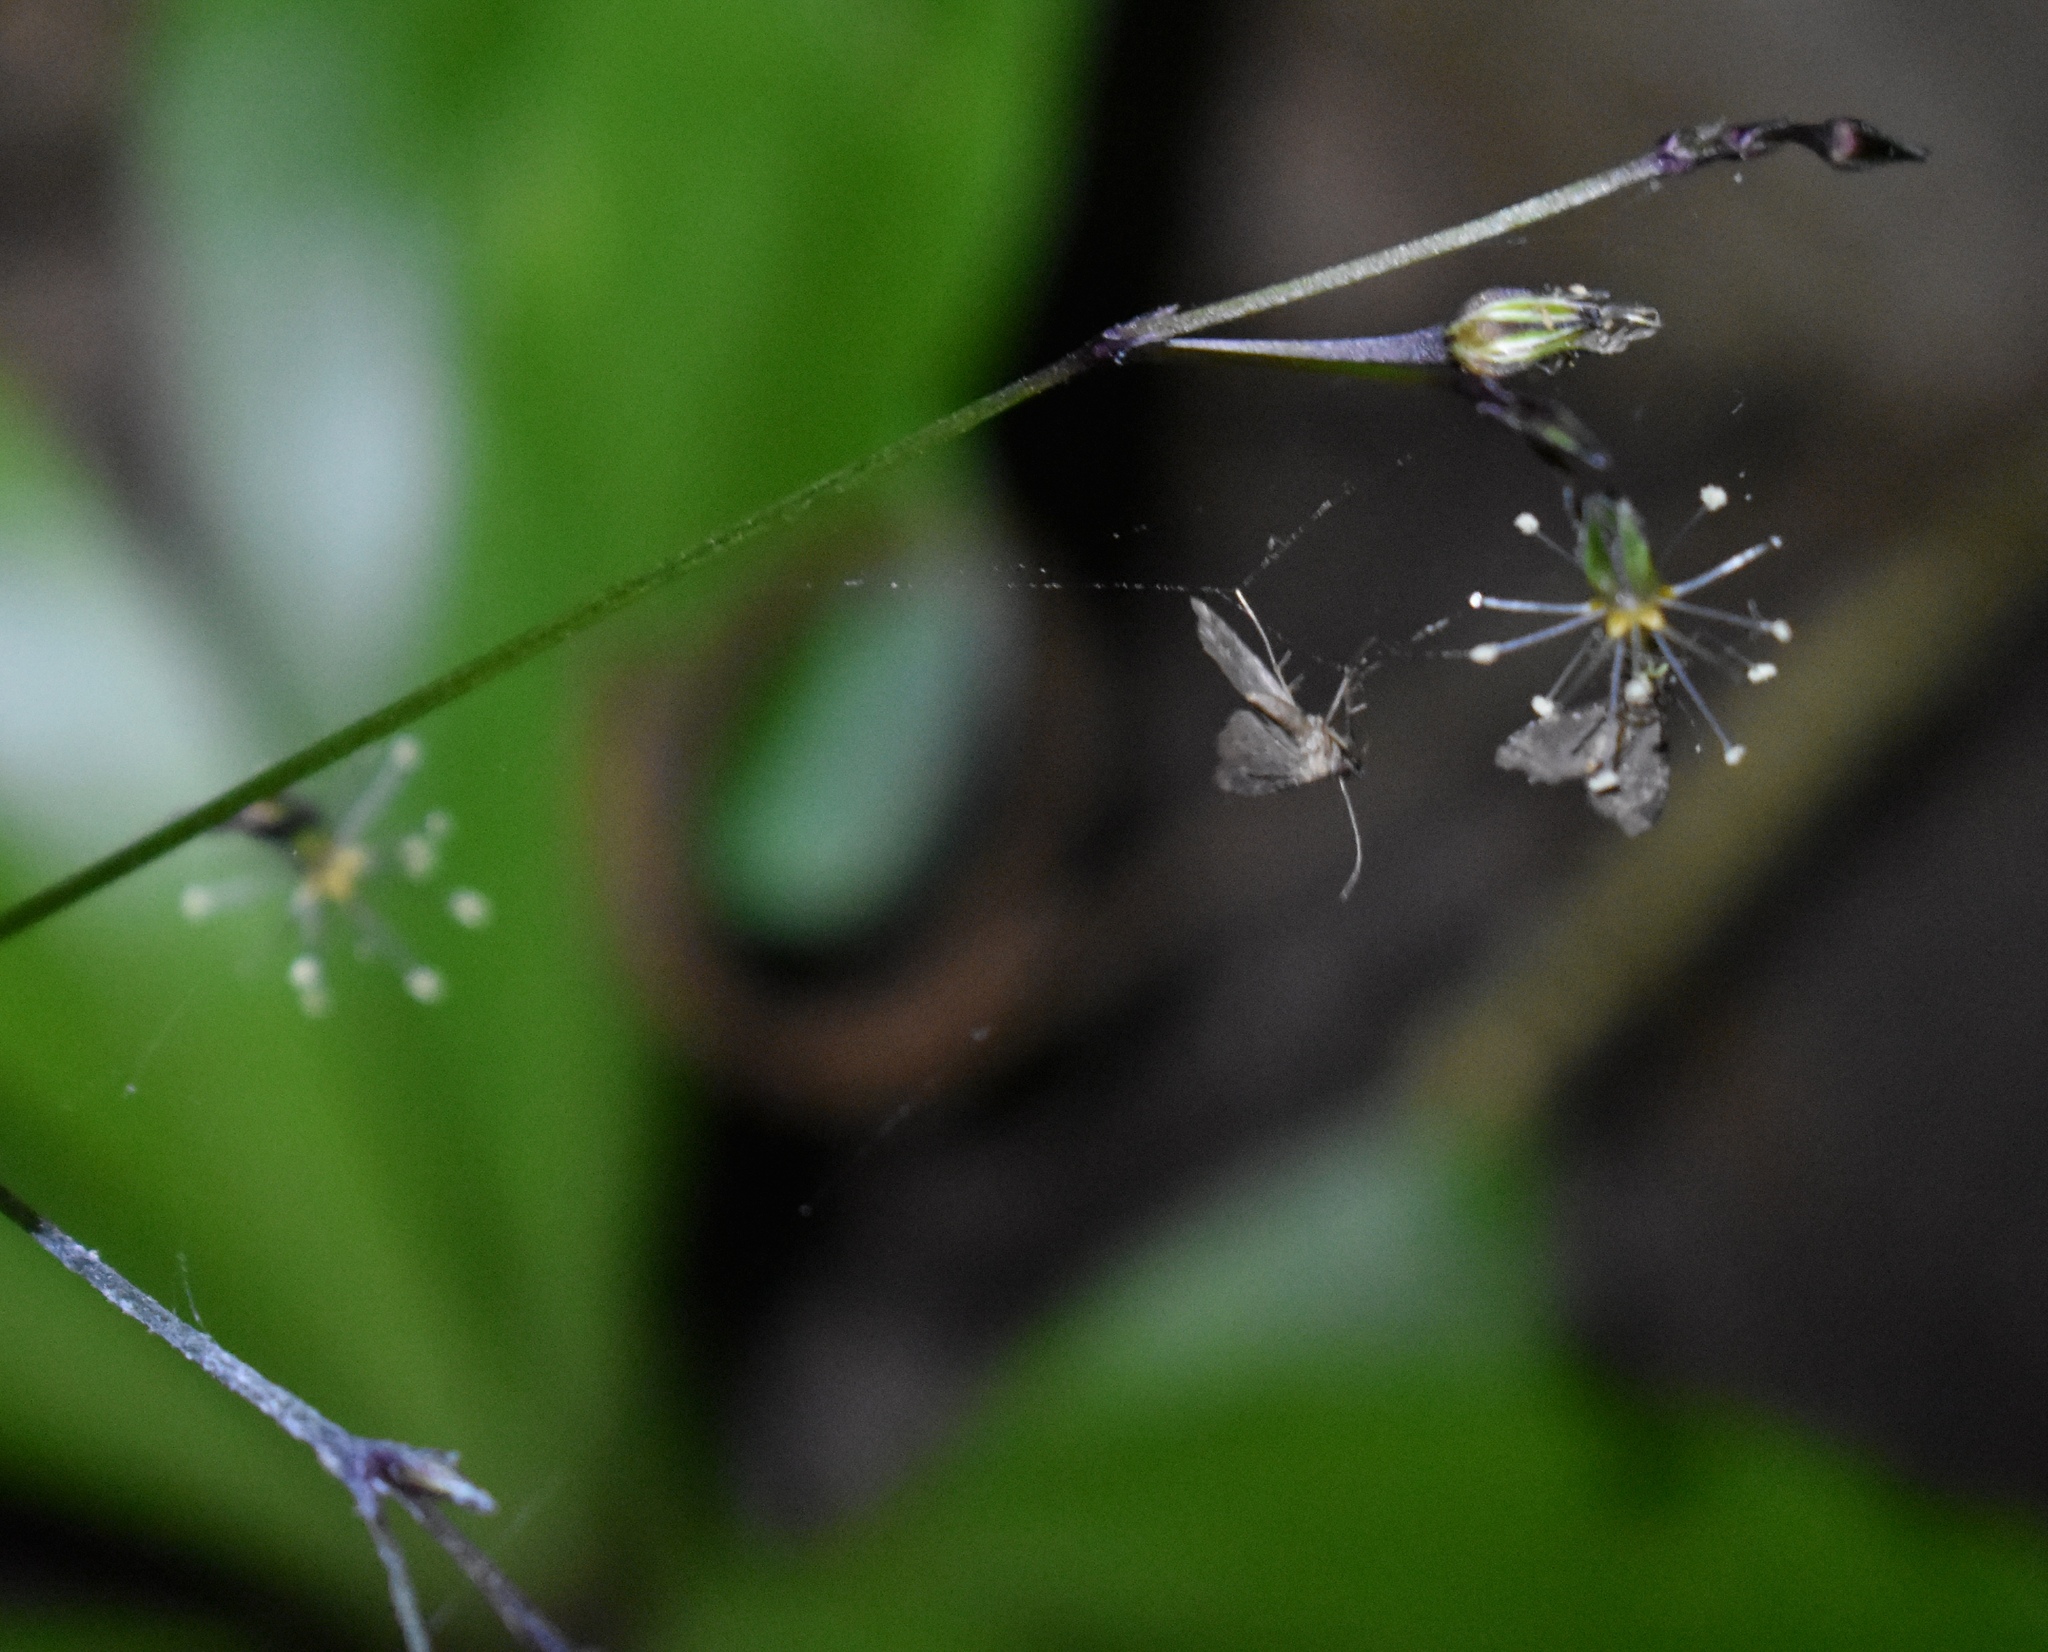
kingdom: Animalia
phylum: Arthropoda
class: Insecta
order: Lepidoptera
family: Erebidae
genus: Pseudoschrankia
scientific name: Pseudoschrankia brevipalpis
